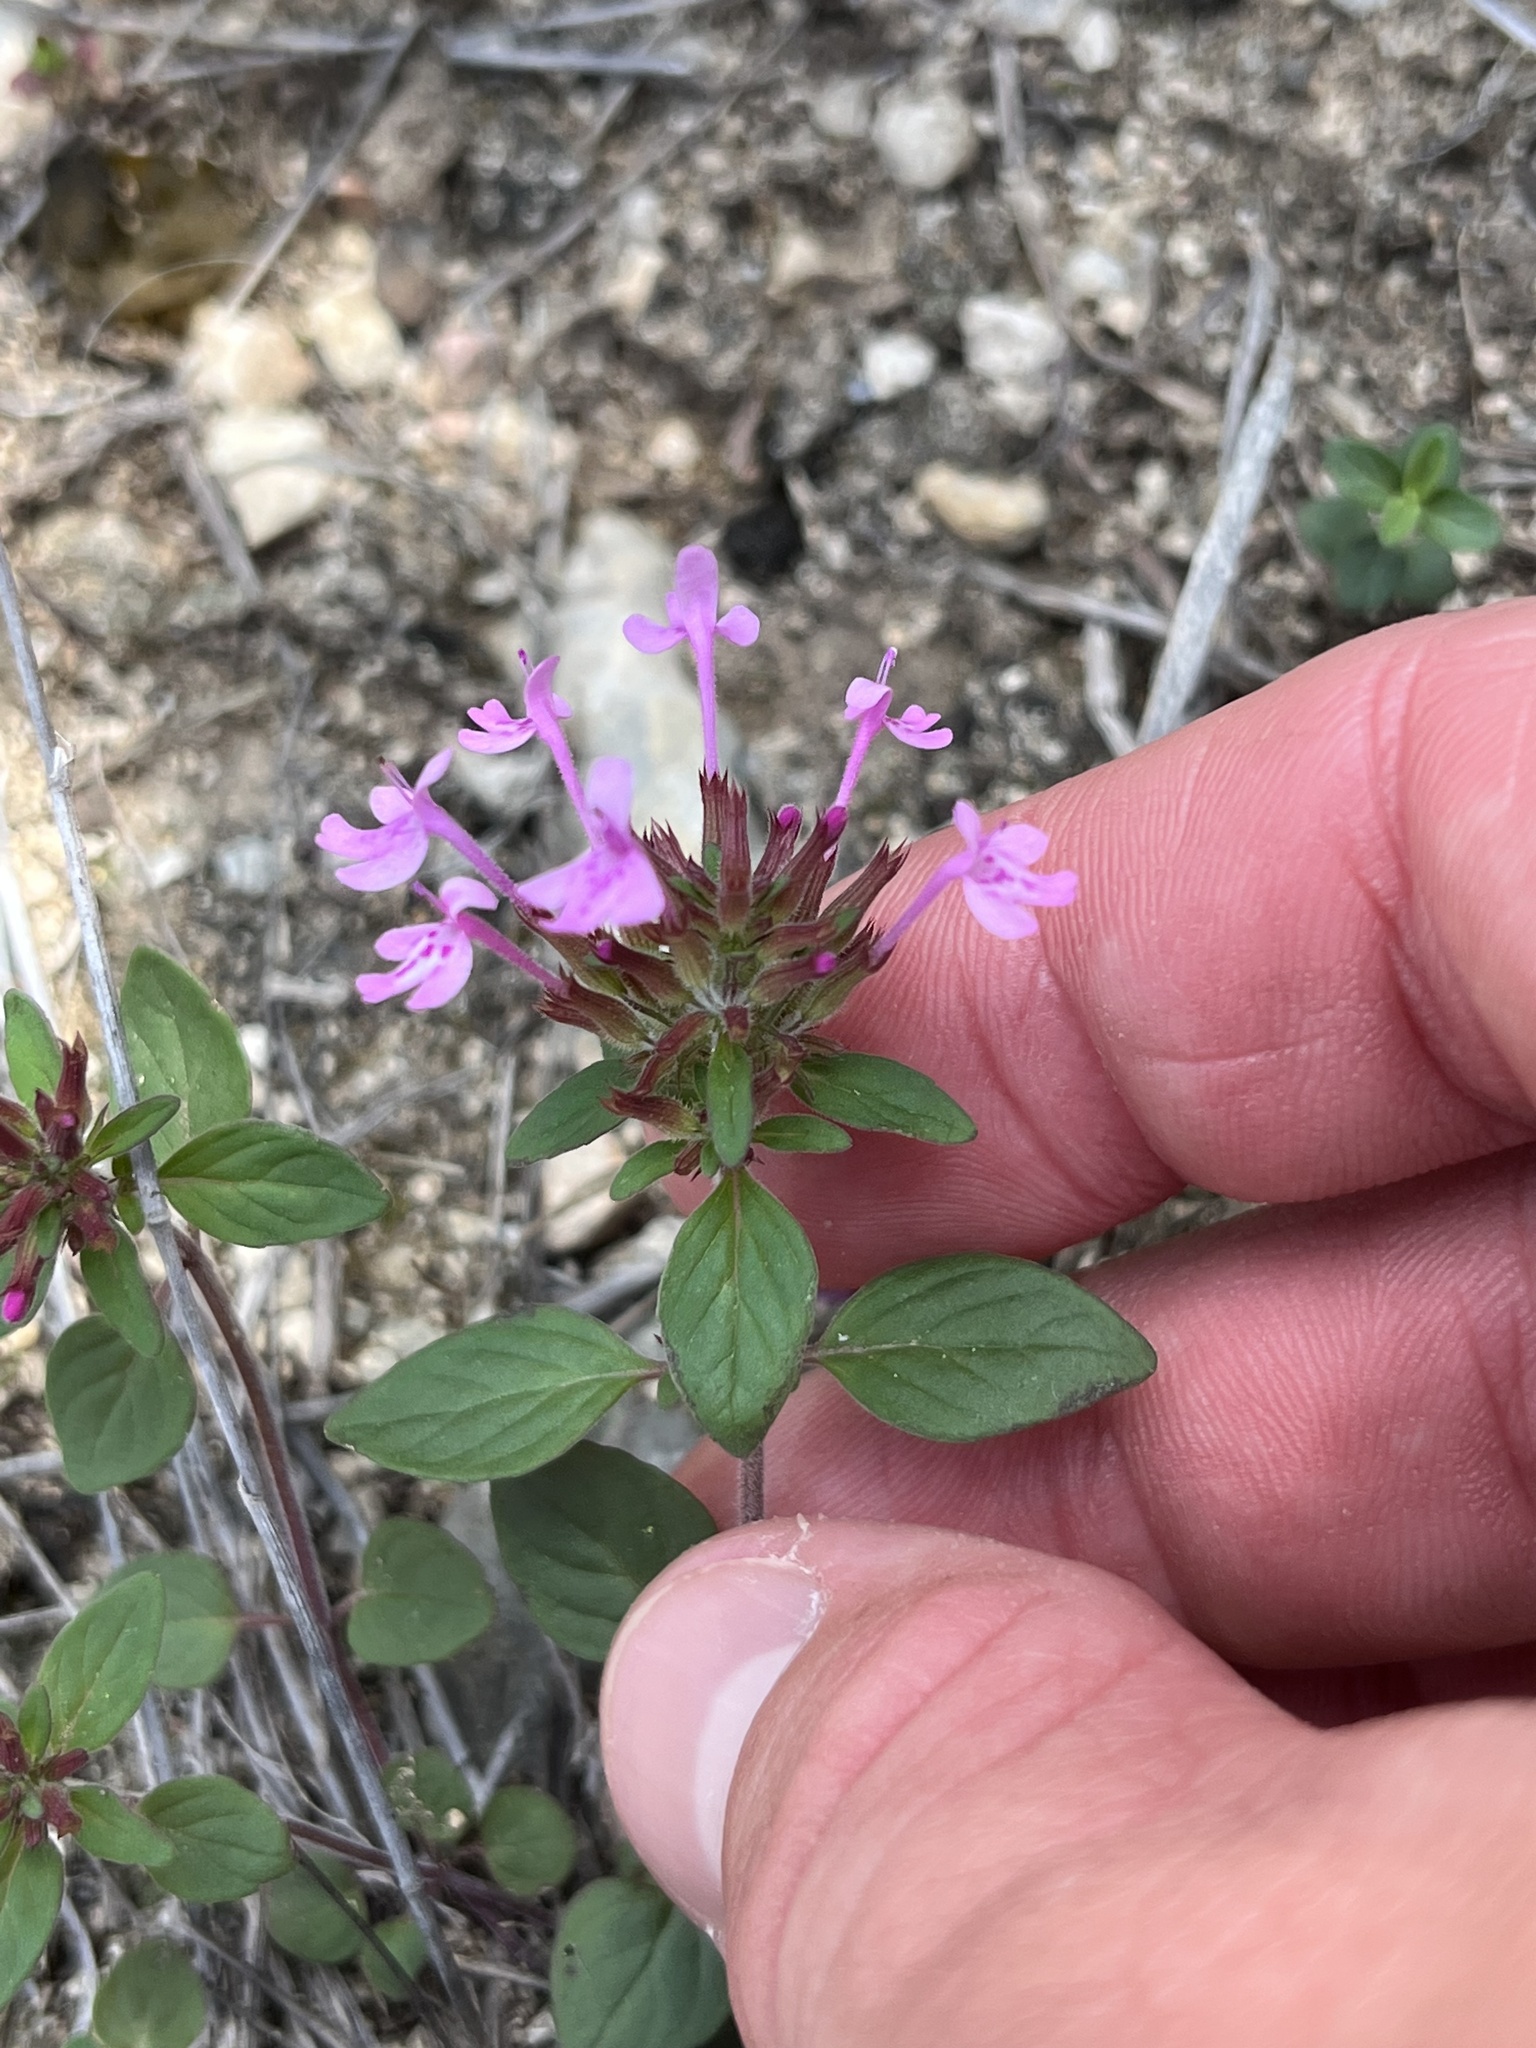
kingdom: Plantae
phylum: Tracheophyta
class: Magnoliopsida
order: Lamiales
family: Lamiaceae
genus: Hedeoma
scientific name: Hedeoma acinoides
